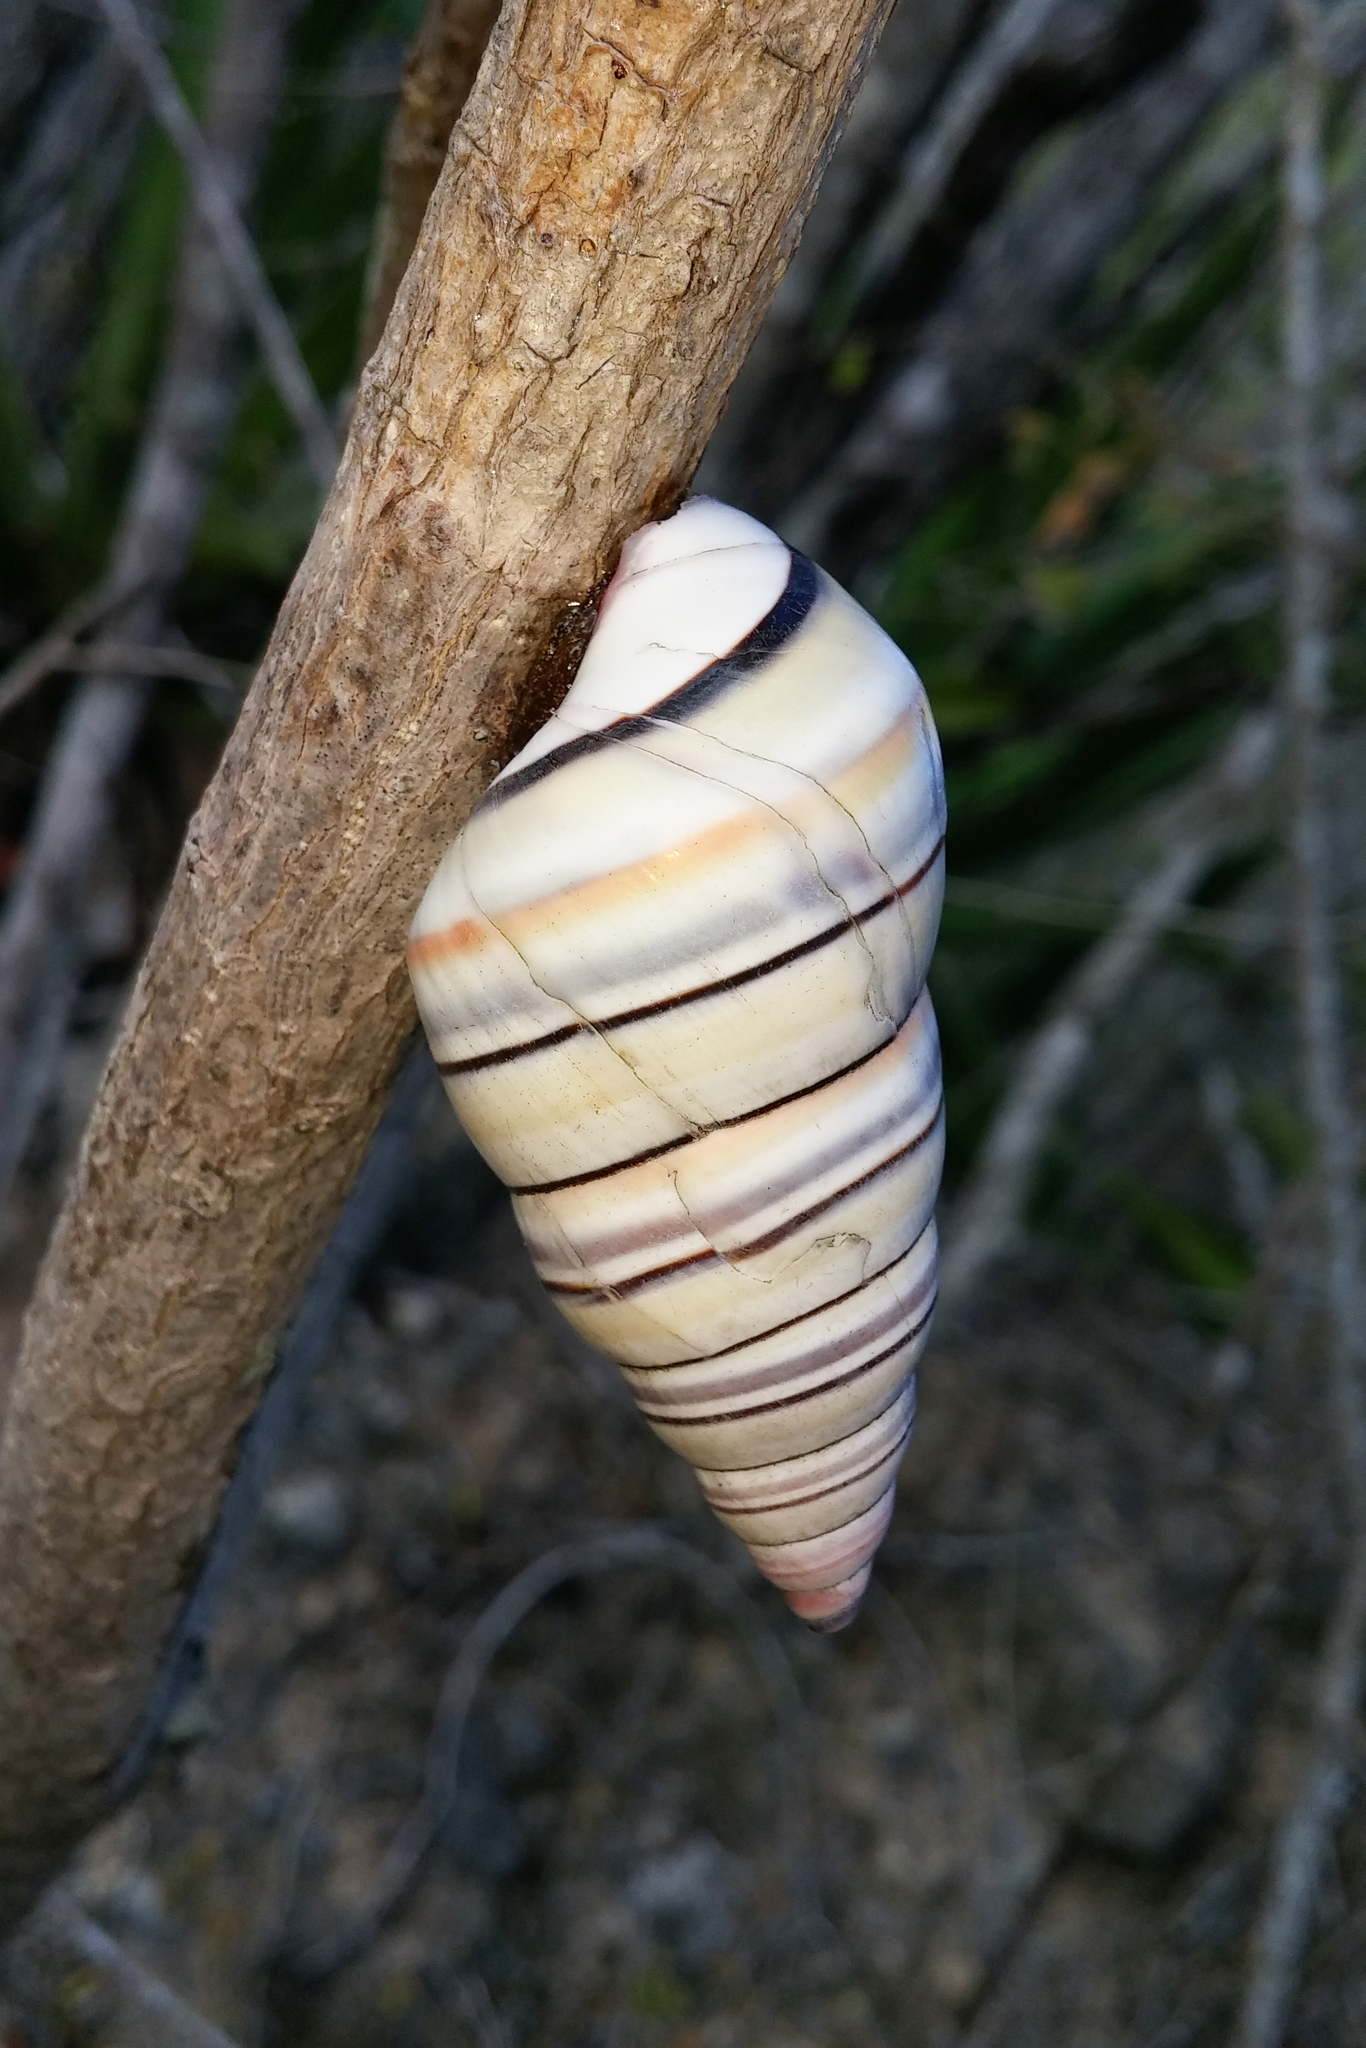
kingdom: Animalia
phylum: Mollusca
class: Gastropoda
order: Stylommatophora
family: Orthalicidae
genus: Liguus
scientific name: Liguus virgineus
